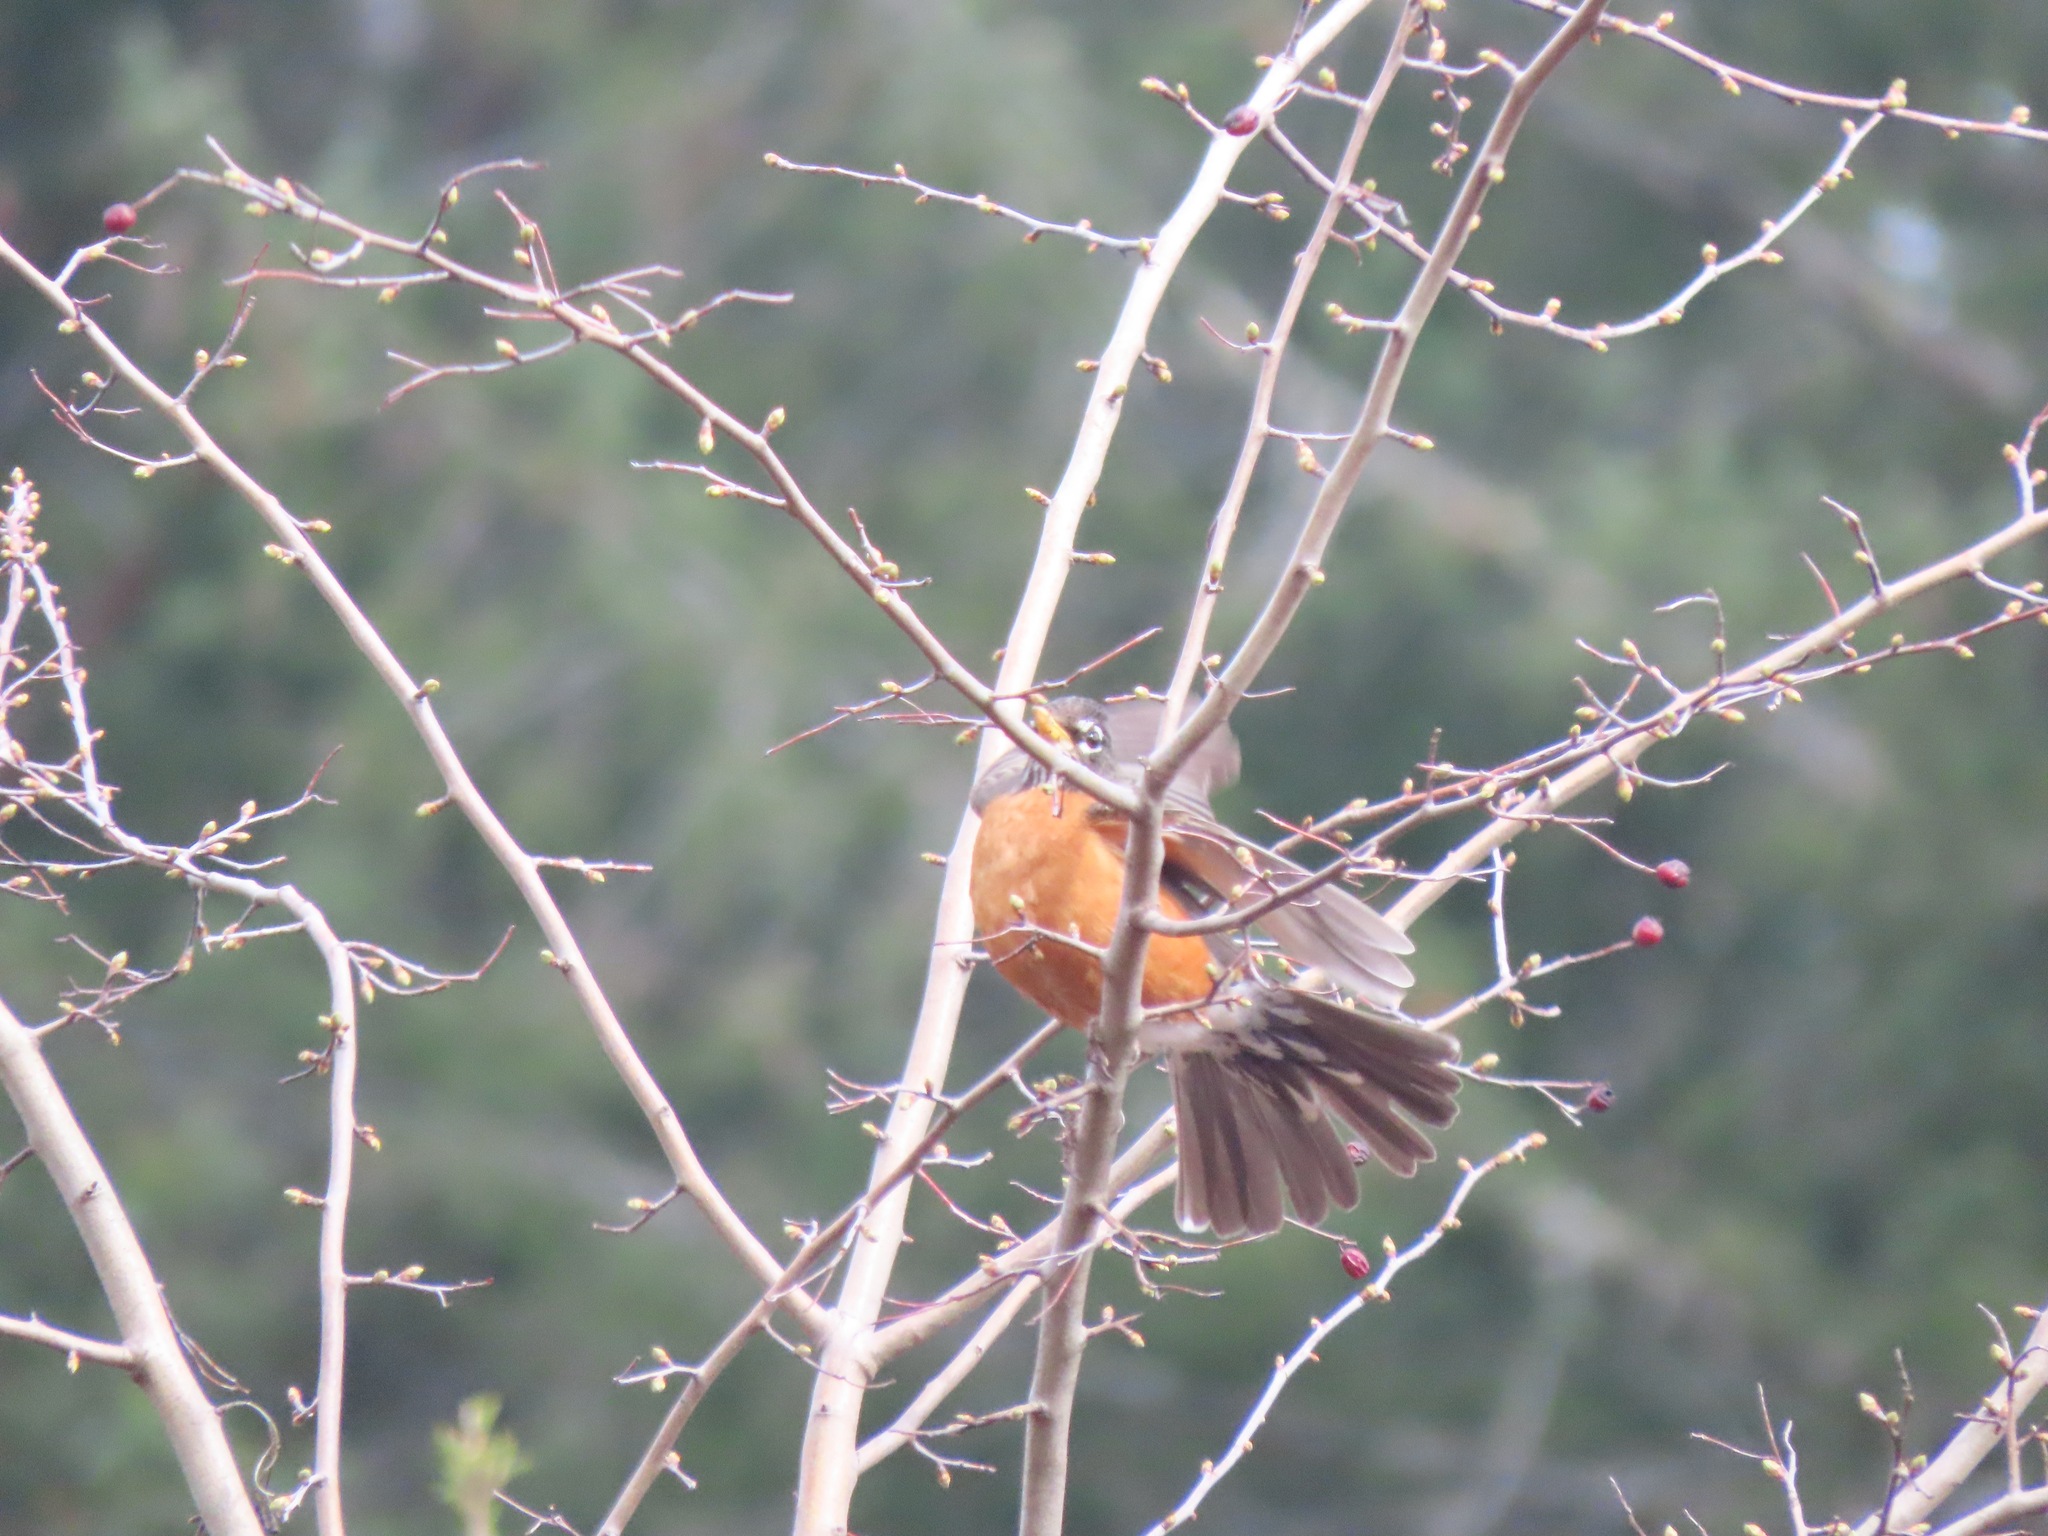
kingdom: Animalia
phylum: Chordata
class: Aves
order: Passeriformes
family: Turdidae
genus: Turdus
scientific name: Turdus migratorius
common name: American robin
